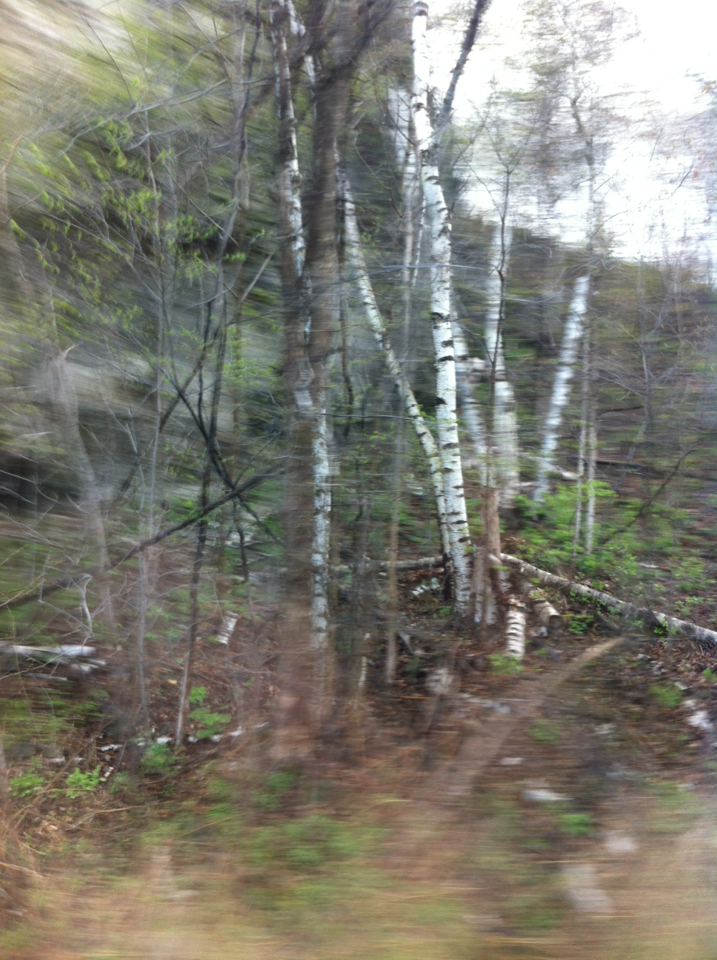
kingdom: Plantae
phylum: Tracheophyta
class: Magnoliopsida
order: Fagales
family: Betulaceae
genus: Betula
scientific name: Betula populifolia
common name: Fire birch
